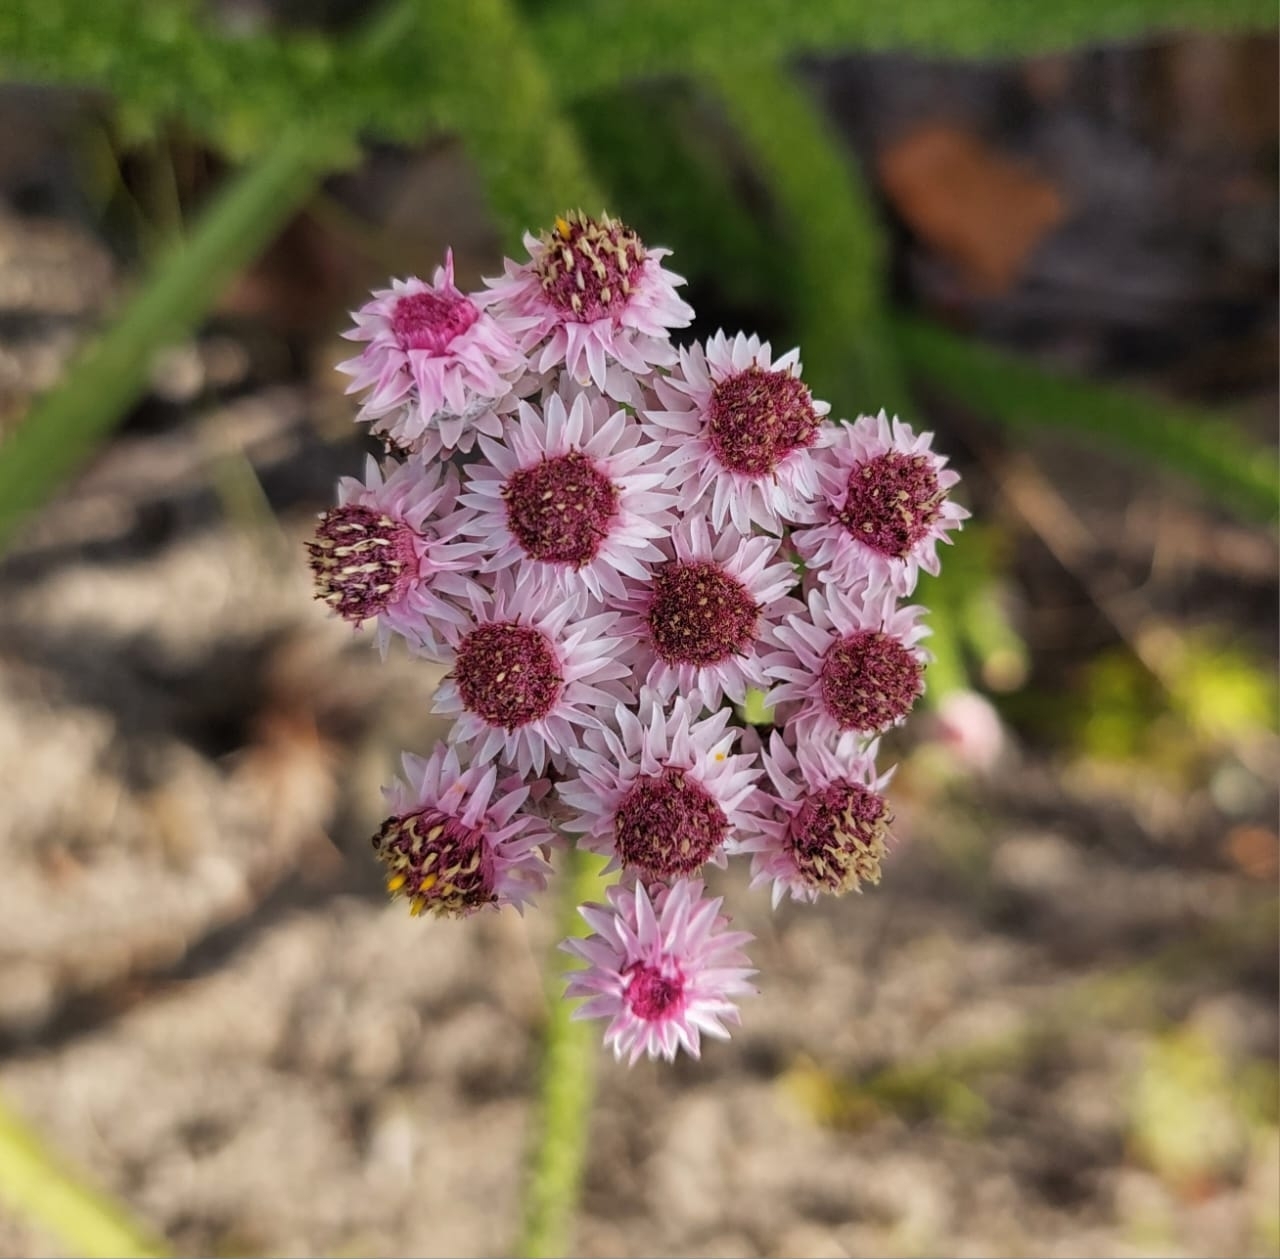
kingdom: Plantae
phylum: Tracheophyta
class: Magnoliopsida
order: Asterales
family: Asteraceae
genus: Lachnospermum
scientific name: Lachnospermum umbellatum
